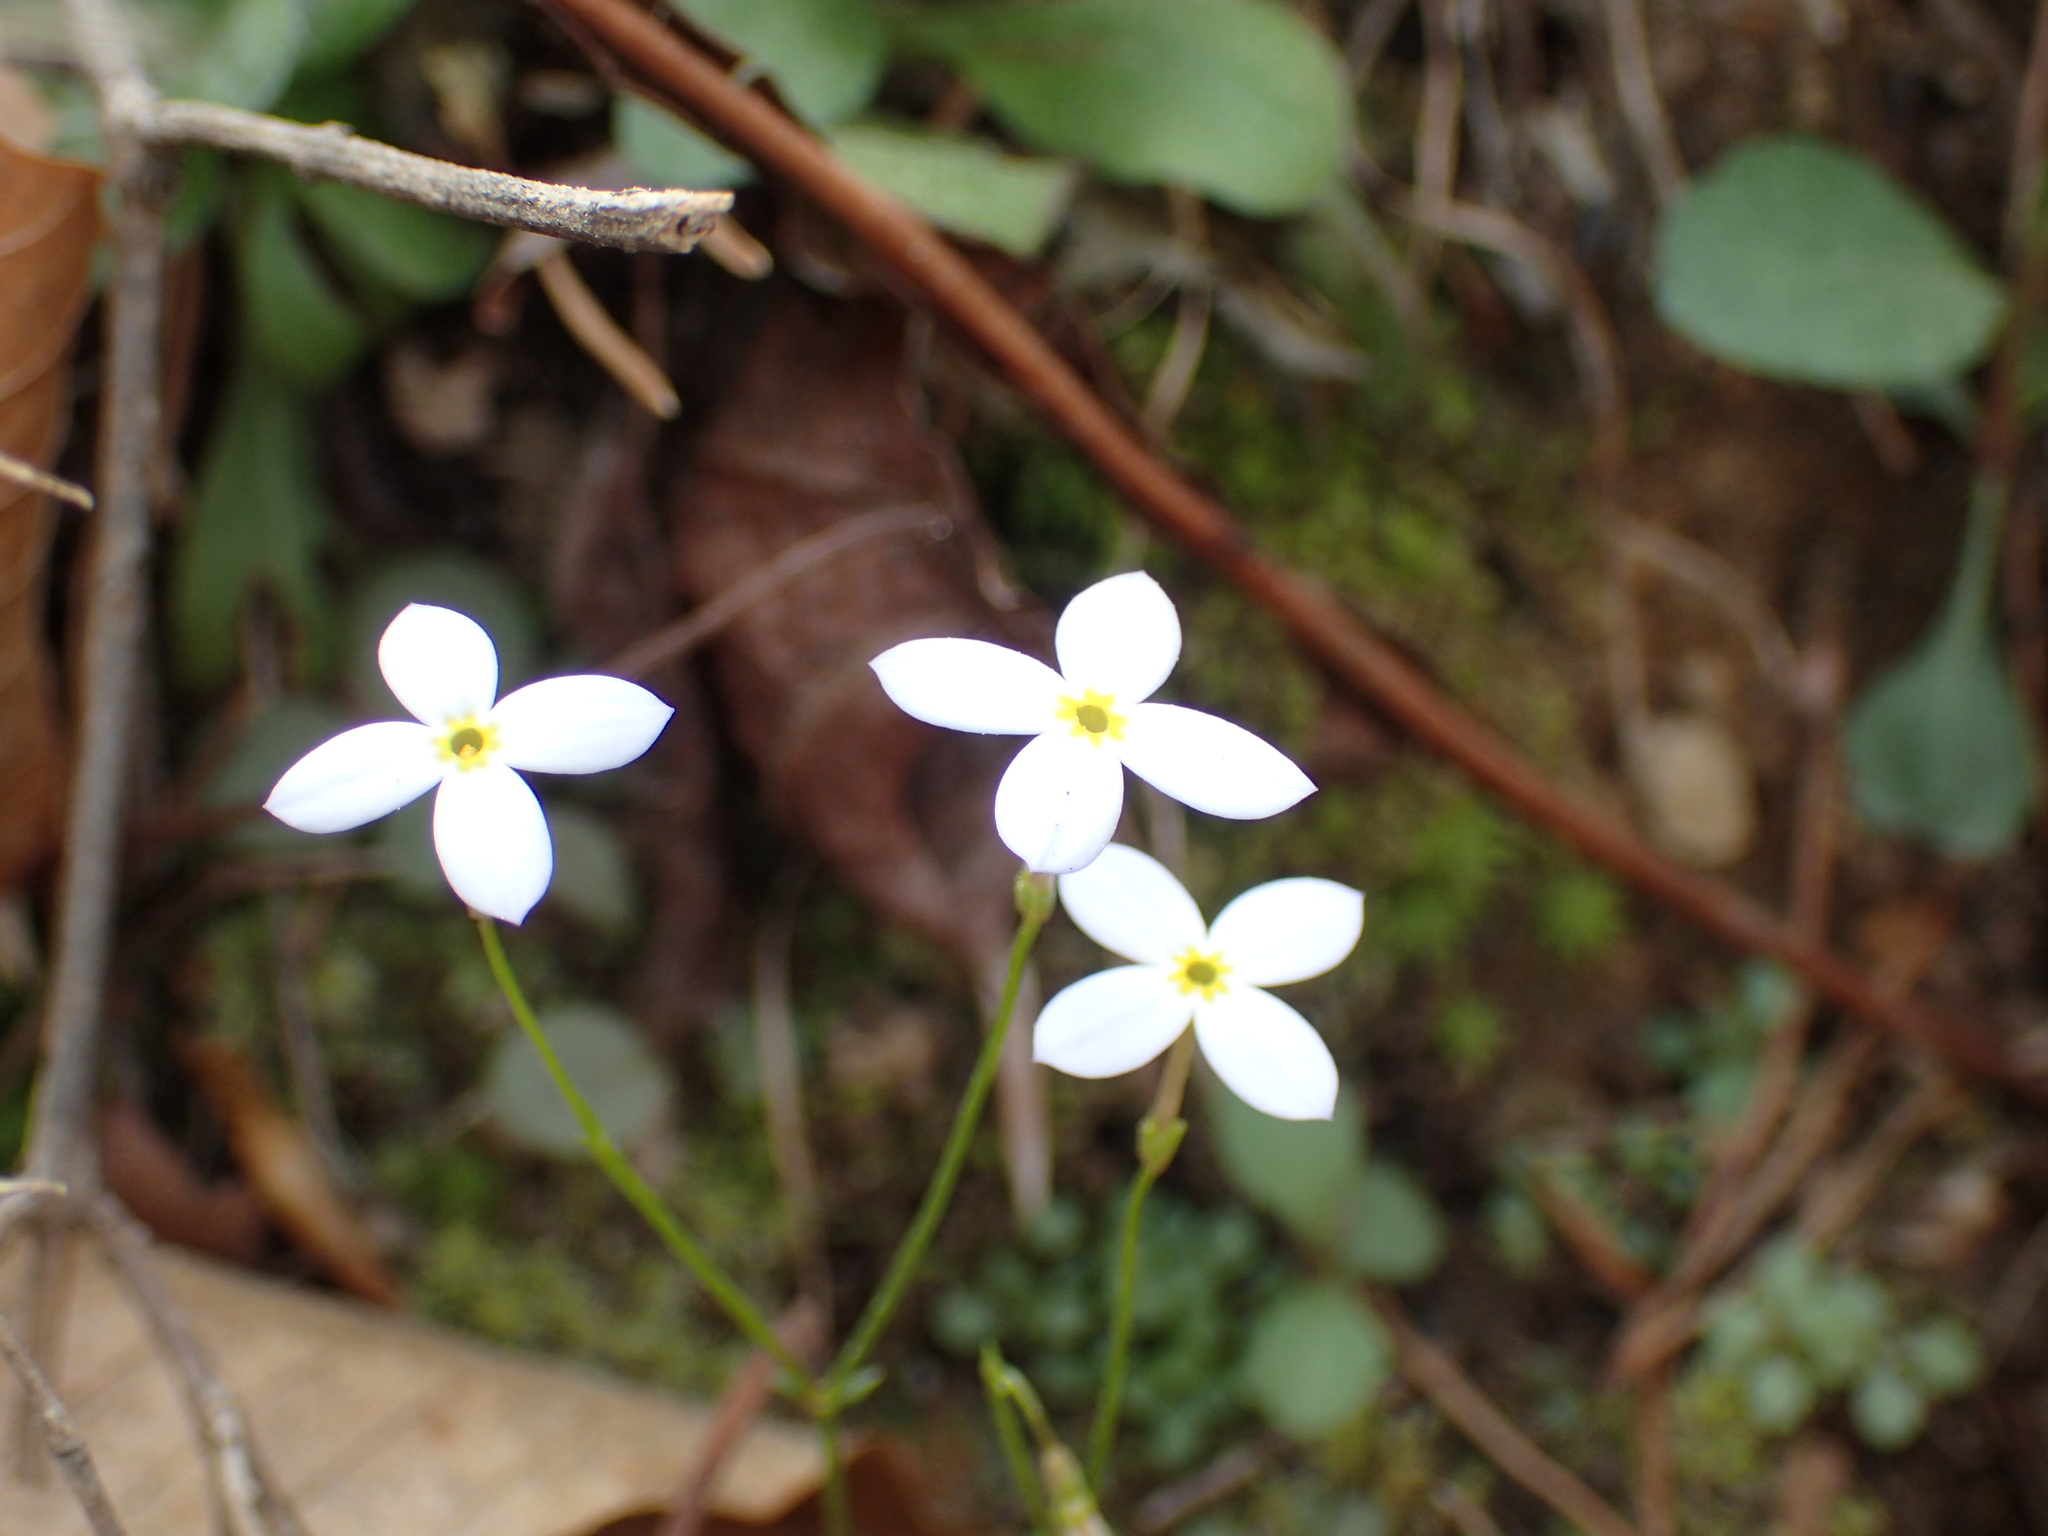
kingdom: Plantae
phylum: Tracheophyta
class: Magnoliopsida
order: Gentianales
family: Rubiaceae
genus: Houstonia
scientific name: Houstonia caerulea
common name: Bluets
